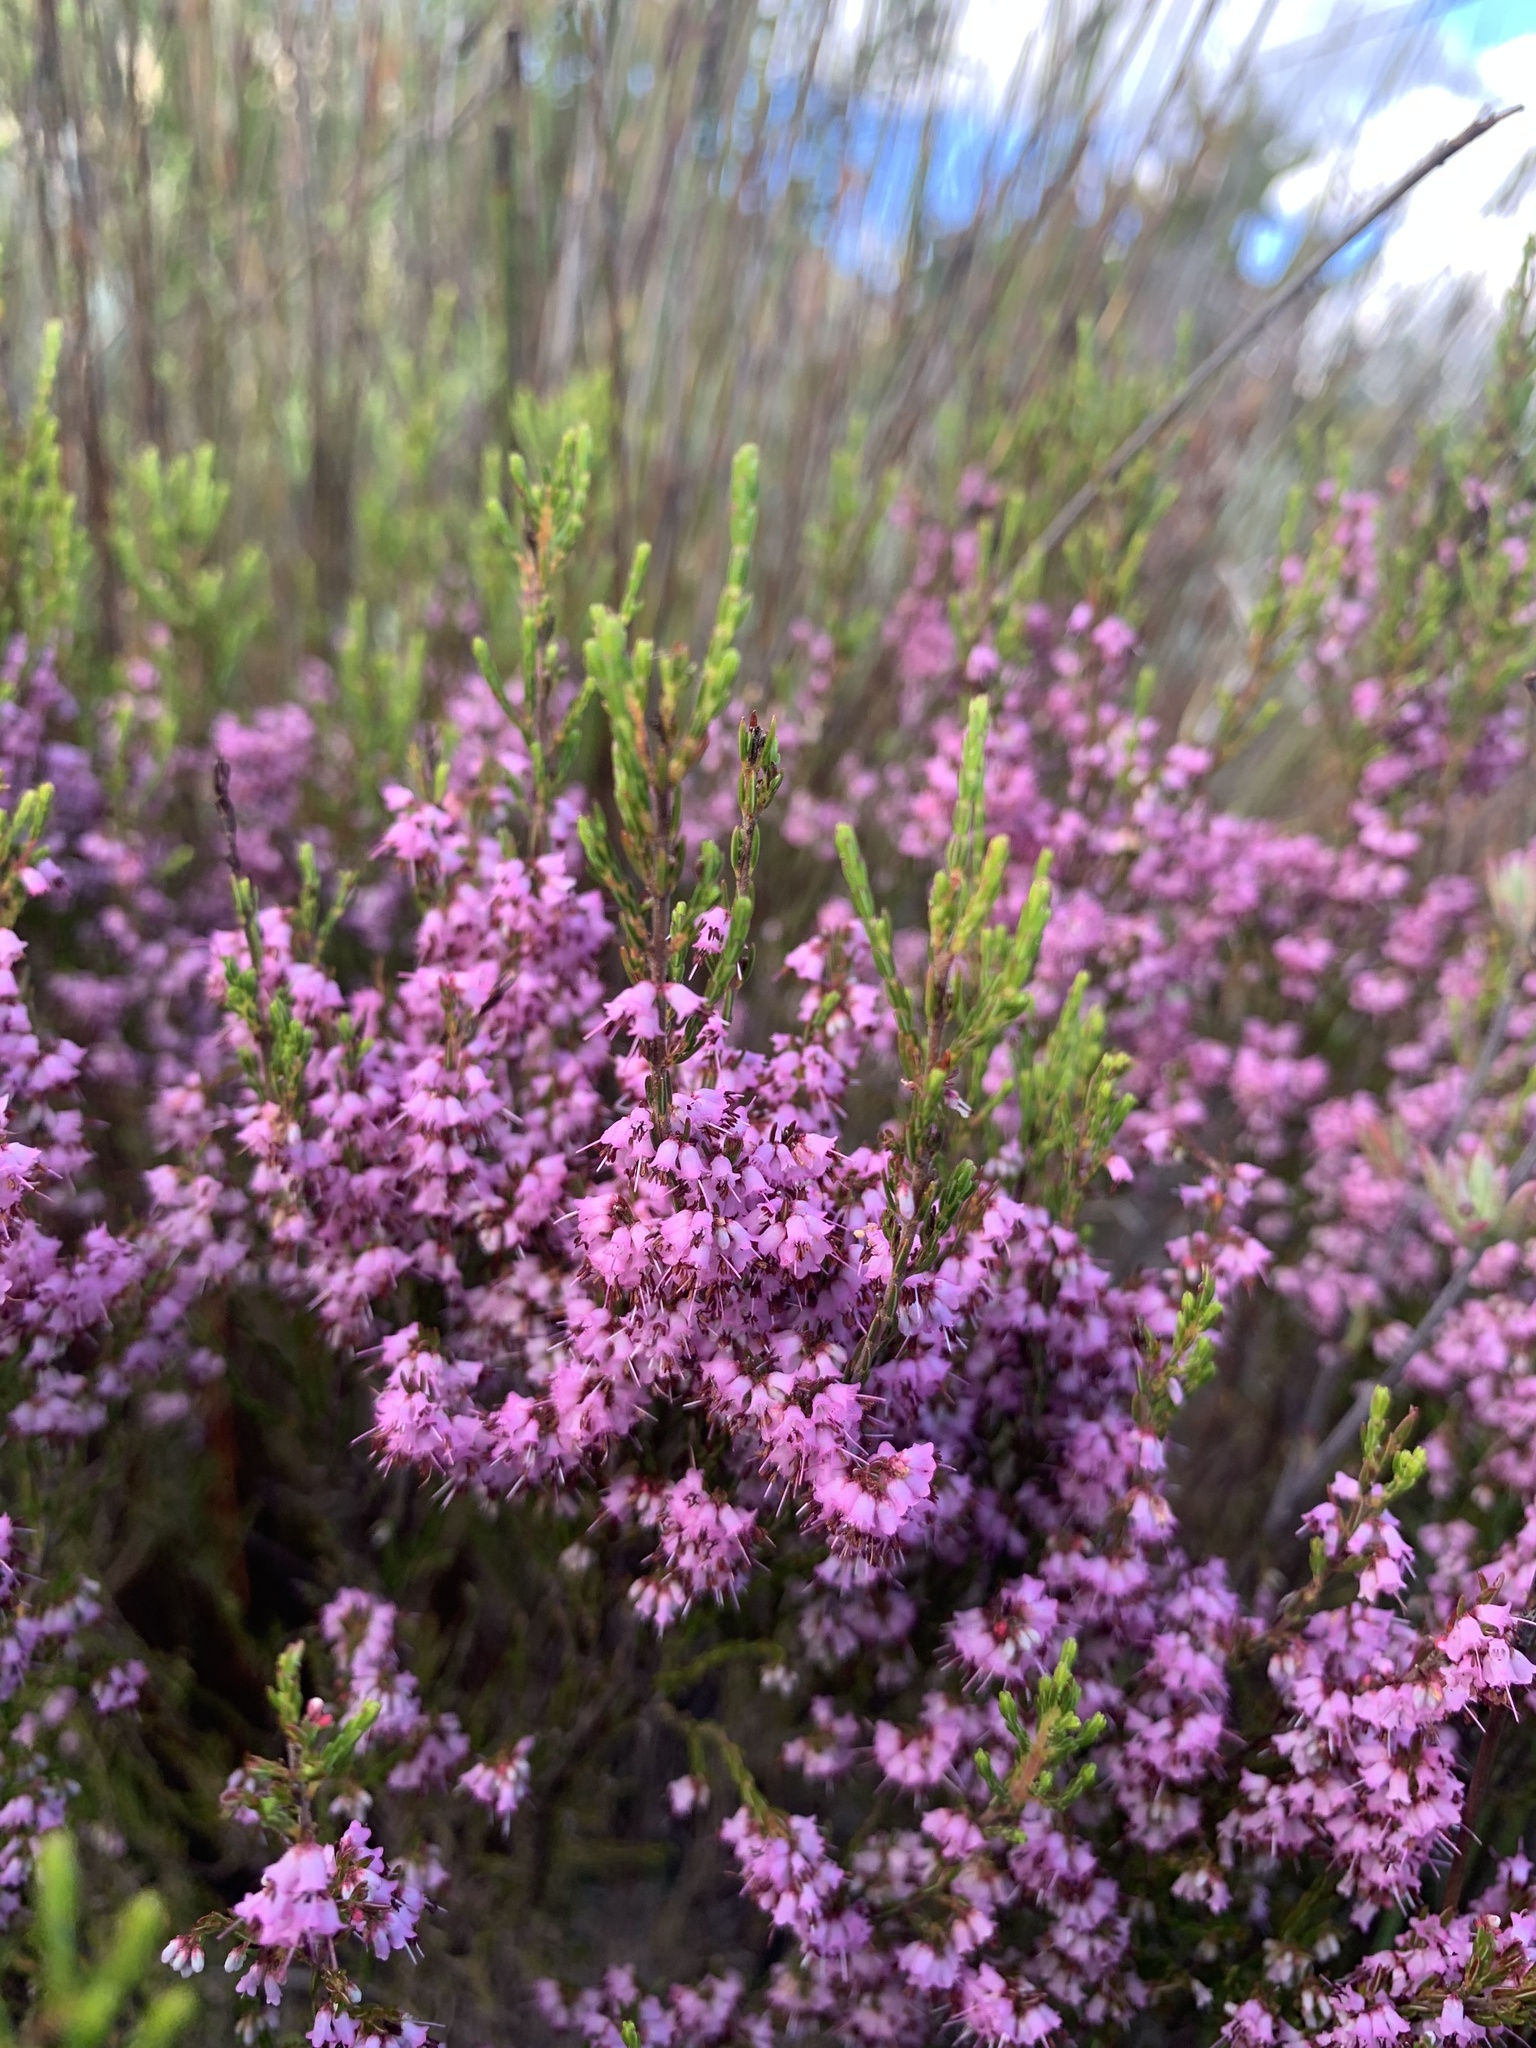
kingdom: Plantae
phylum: Tracheophyta
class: Magnoliopsida
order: Ericales
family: Ericaceae
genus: Erica
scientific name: Erica rosacea
